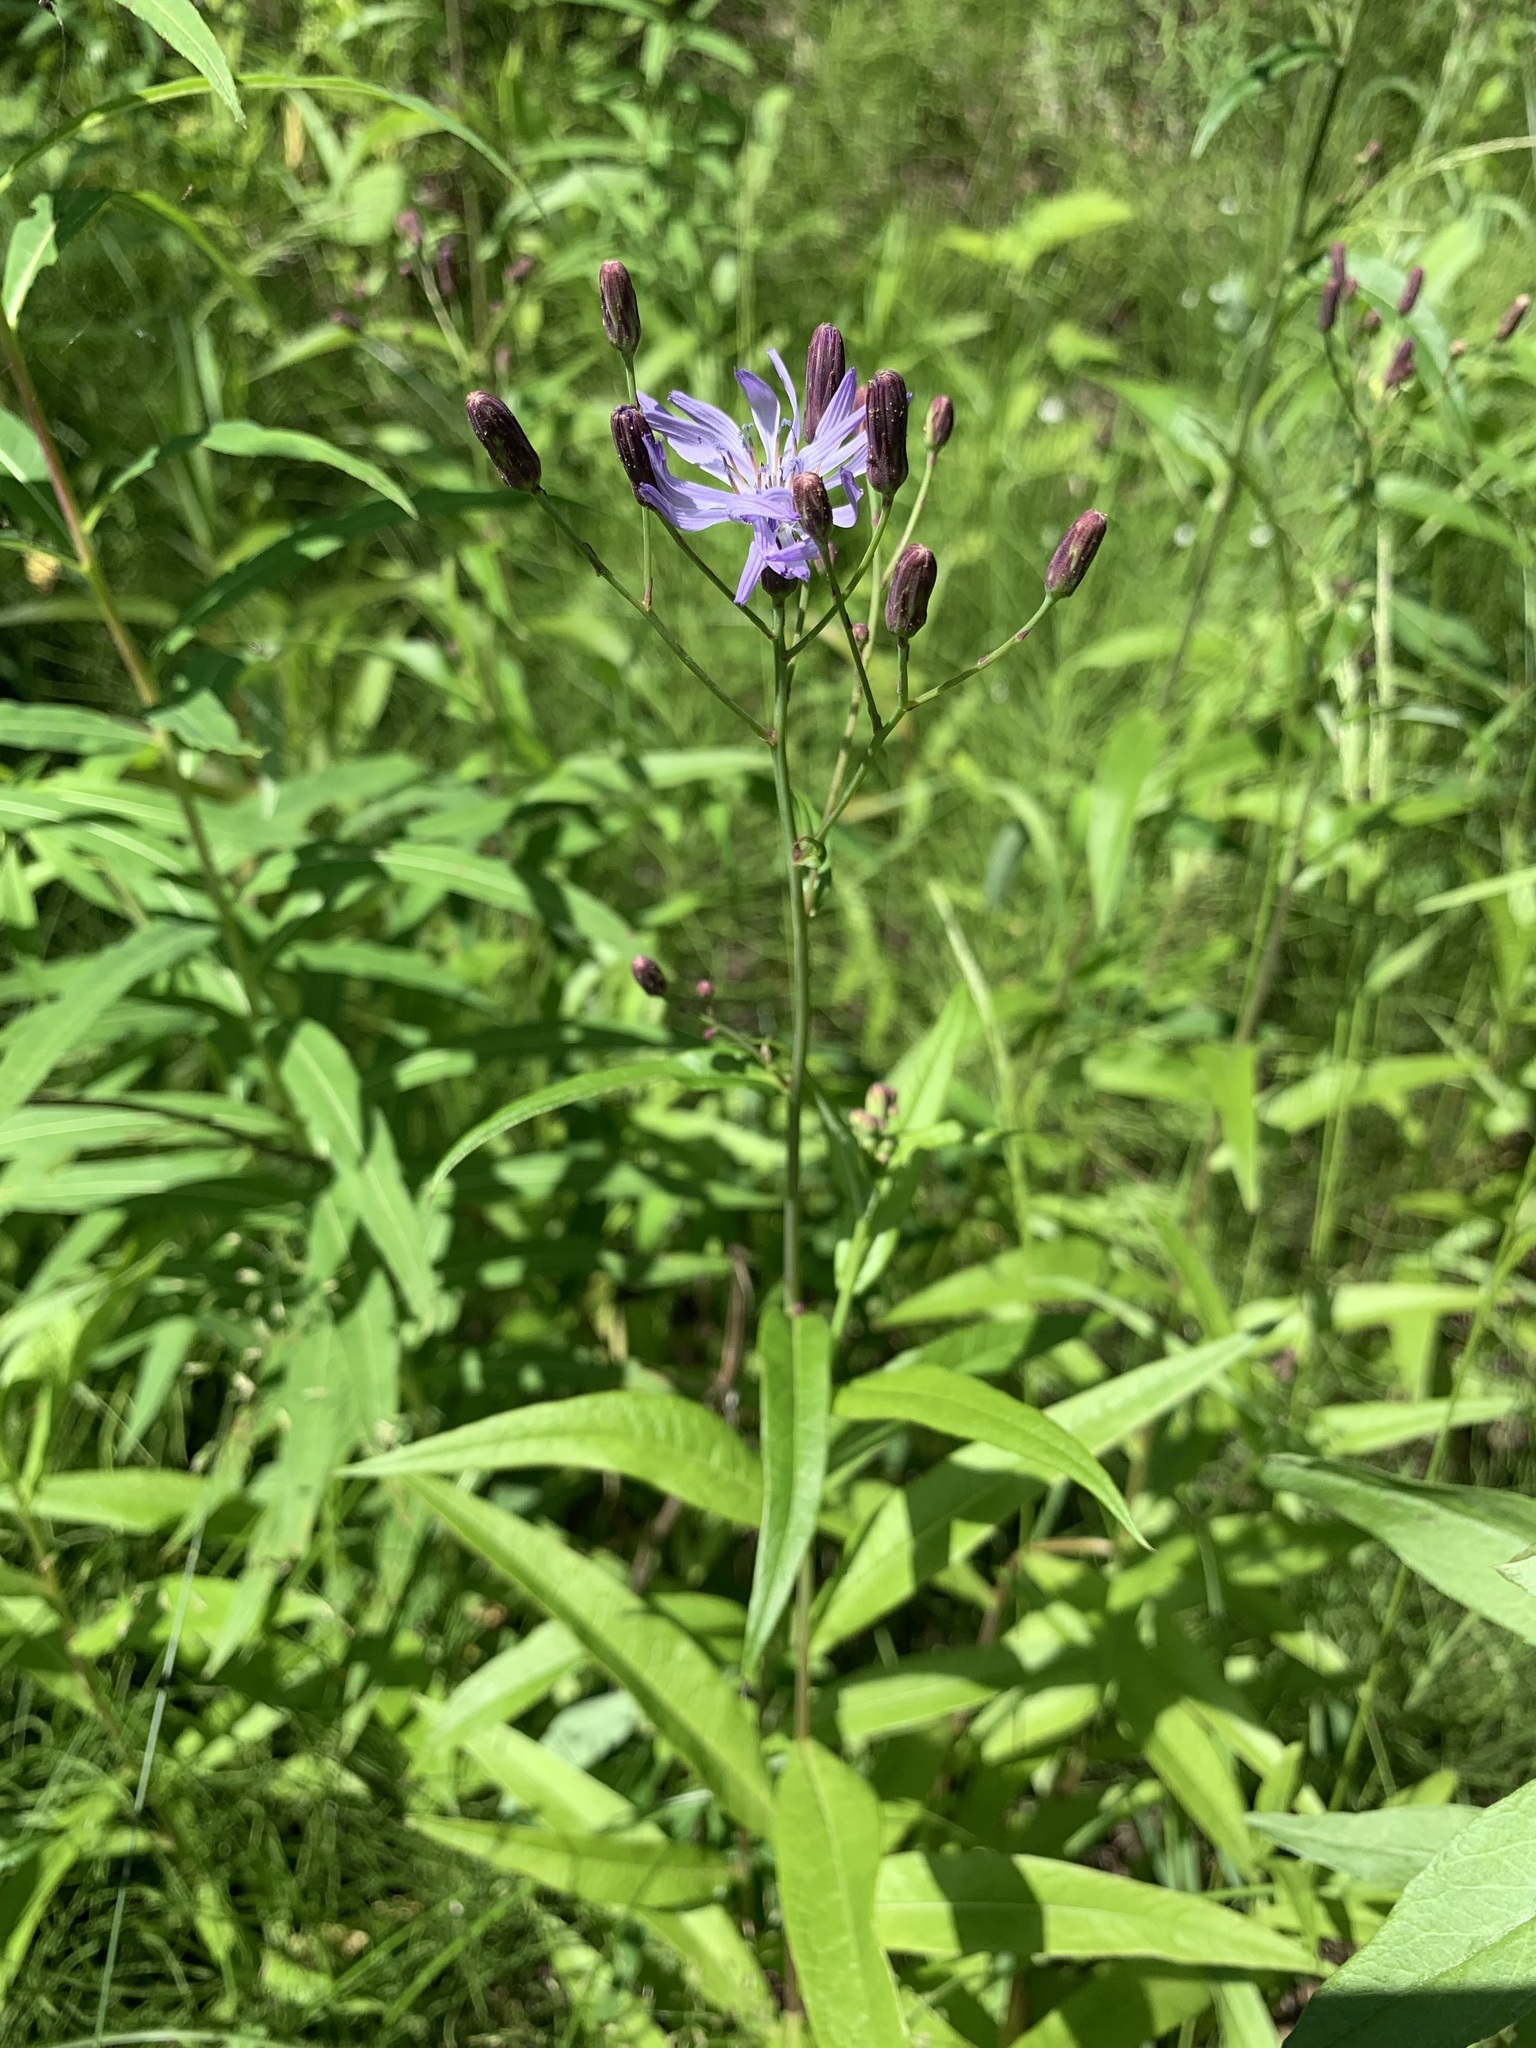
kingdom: Plantae
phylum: Tracheophyta
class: Magnoliopsida
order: Asterales
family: Asteraceae
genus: Lactuca
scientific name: Lactuca sibirica
